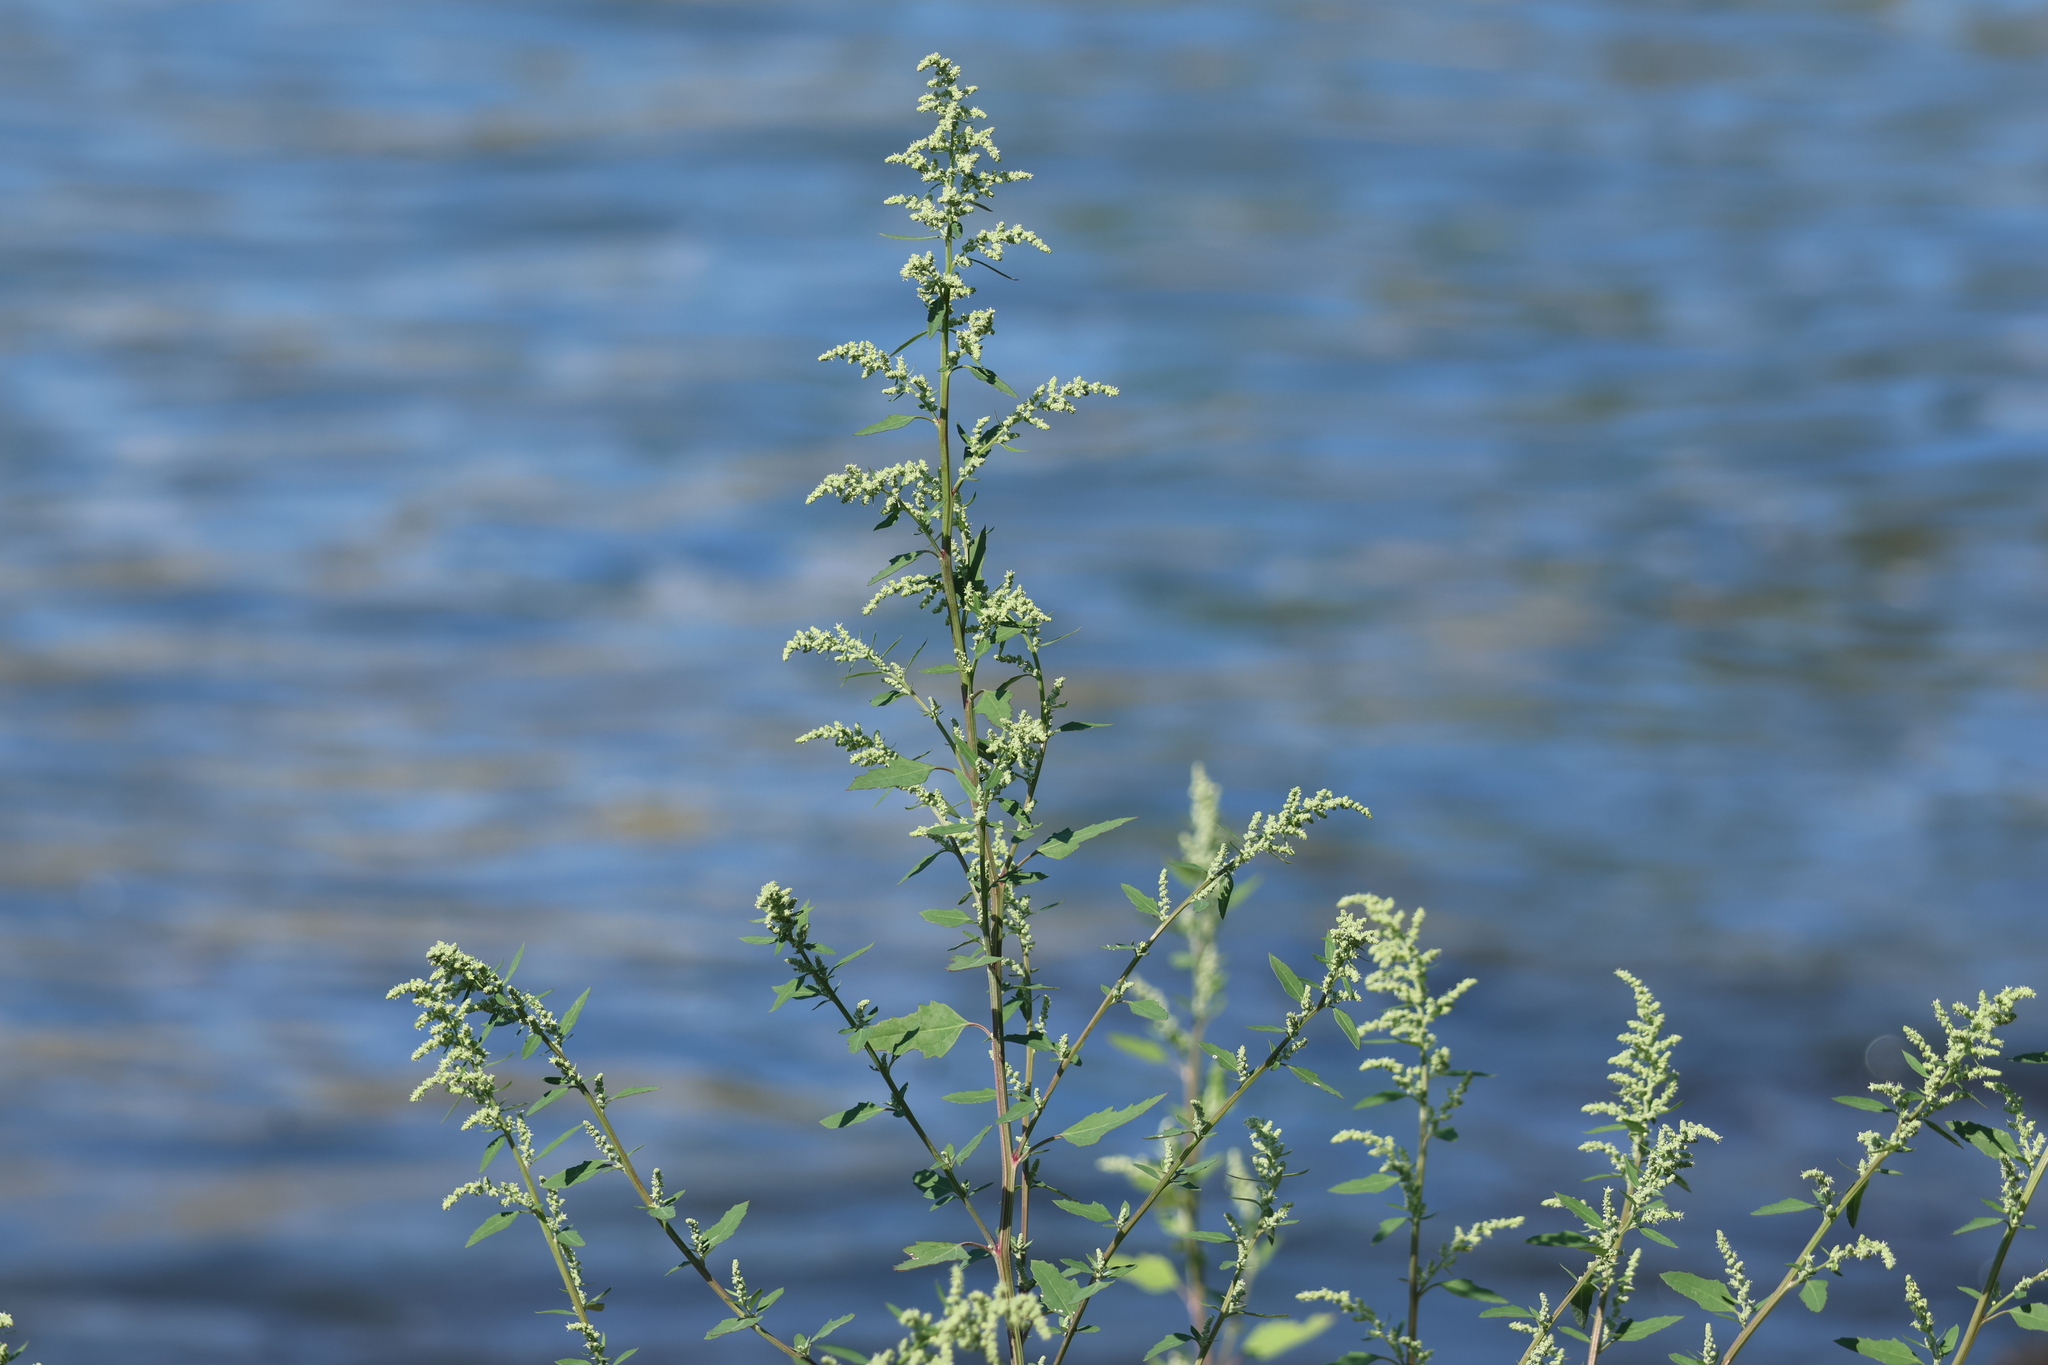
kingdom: Plantae
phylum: Tracheophyta
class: Magnoliopsida
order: Caryophyllales
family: Amaranthaceae
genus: Chenopodium
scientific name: Chenopodium album
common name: Fat-hen
